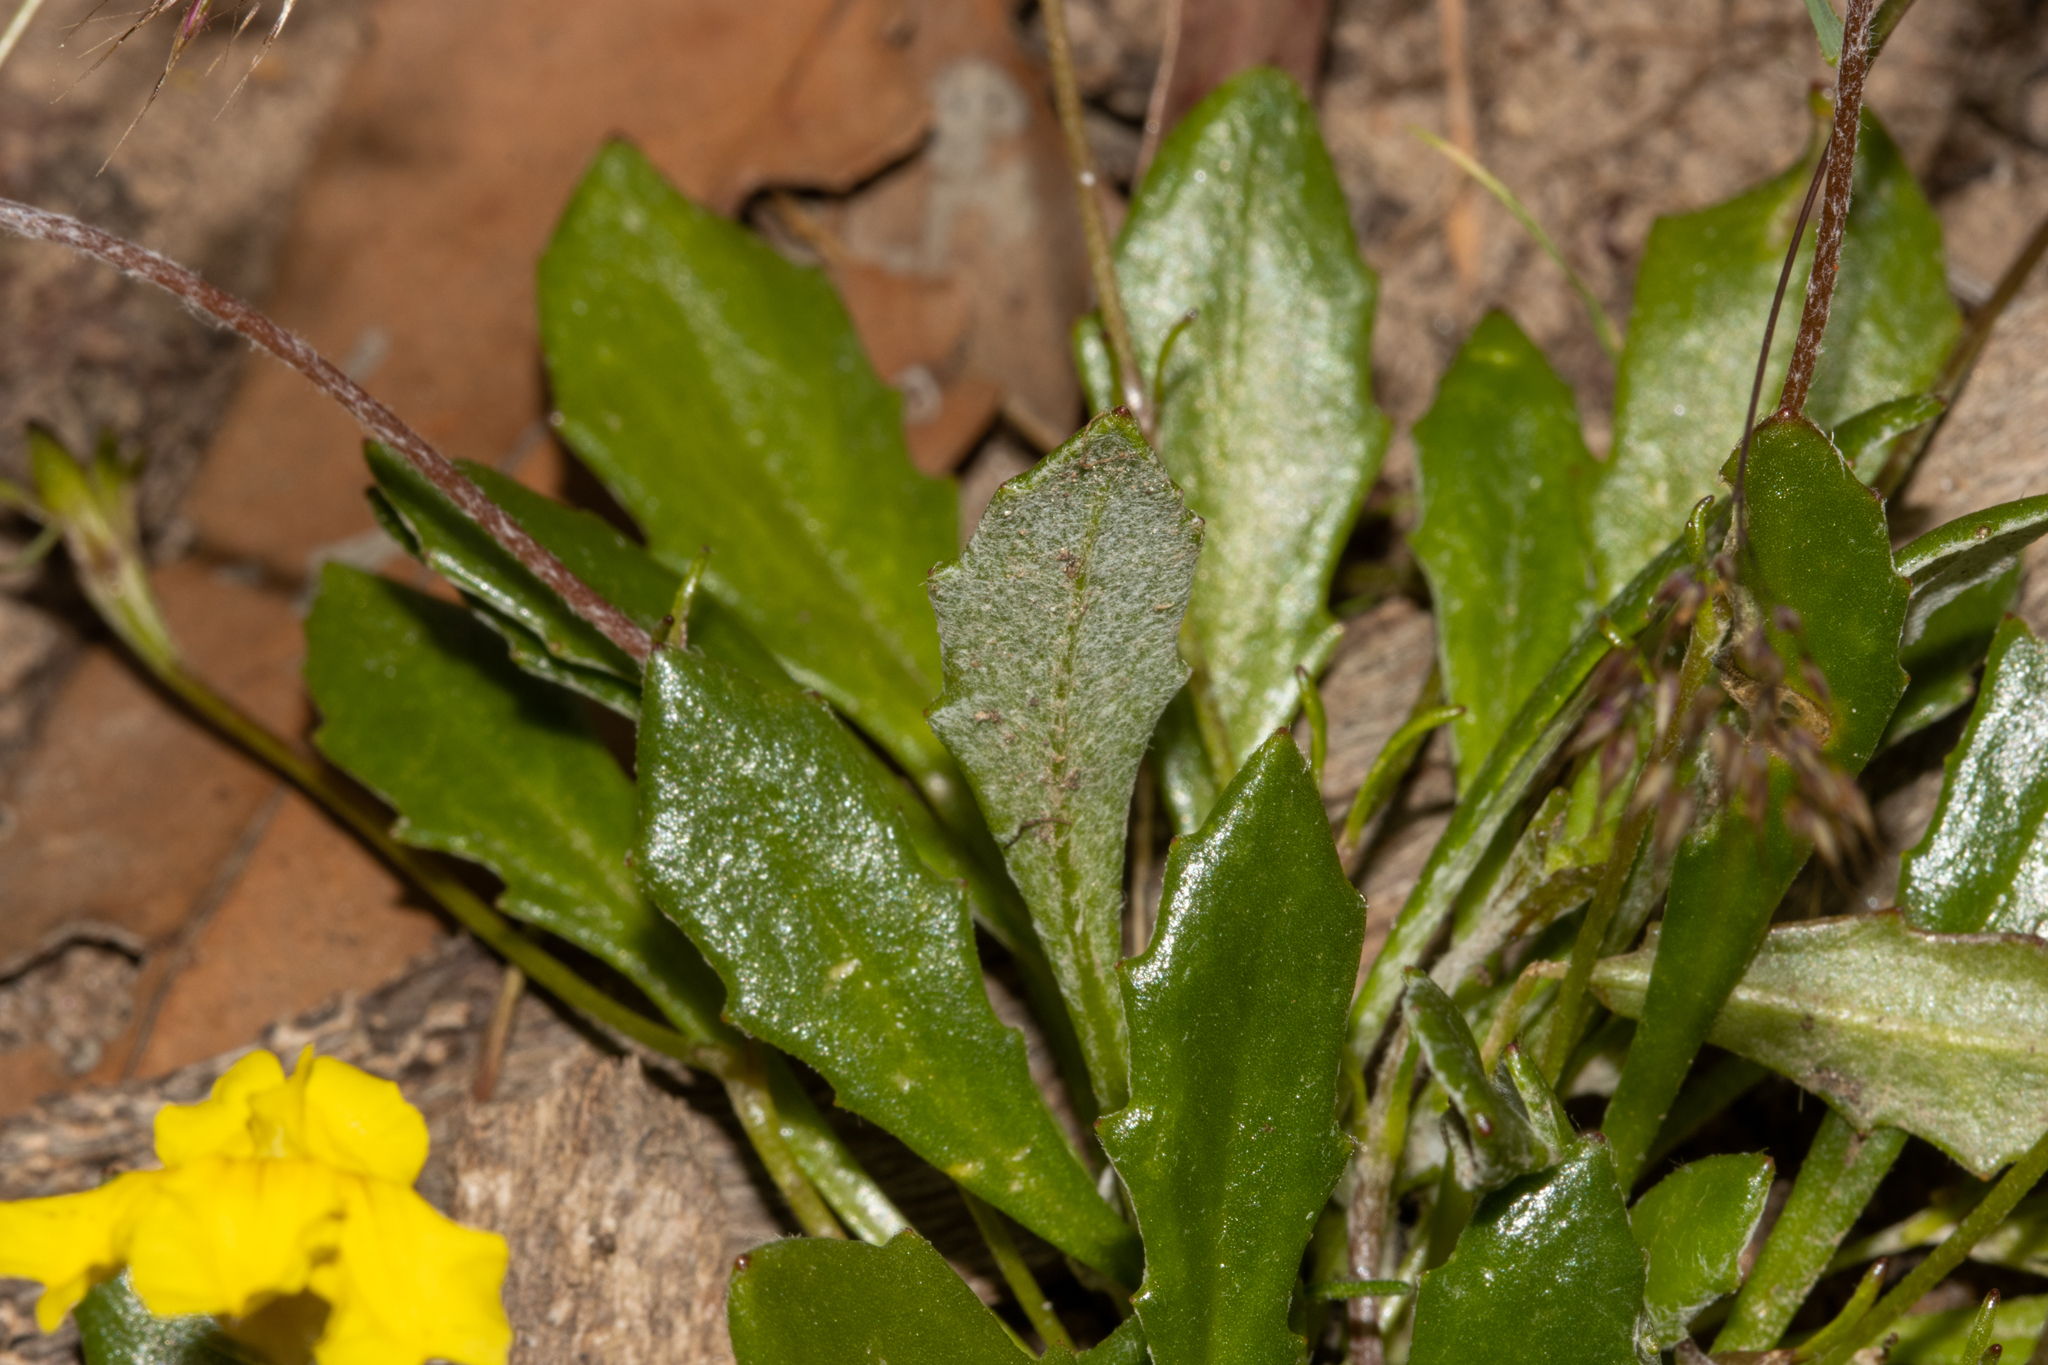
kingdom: Plantae
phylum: Tracheophyta
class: Magnoliopsida
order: Asterales
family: Goodeniaceae
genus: Goodenia
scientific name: Goodenia blackiana
